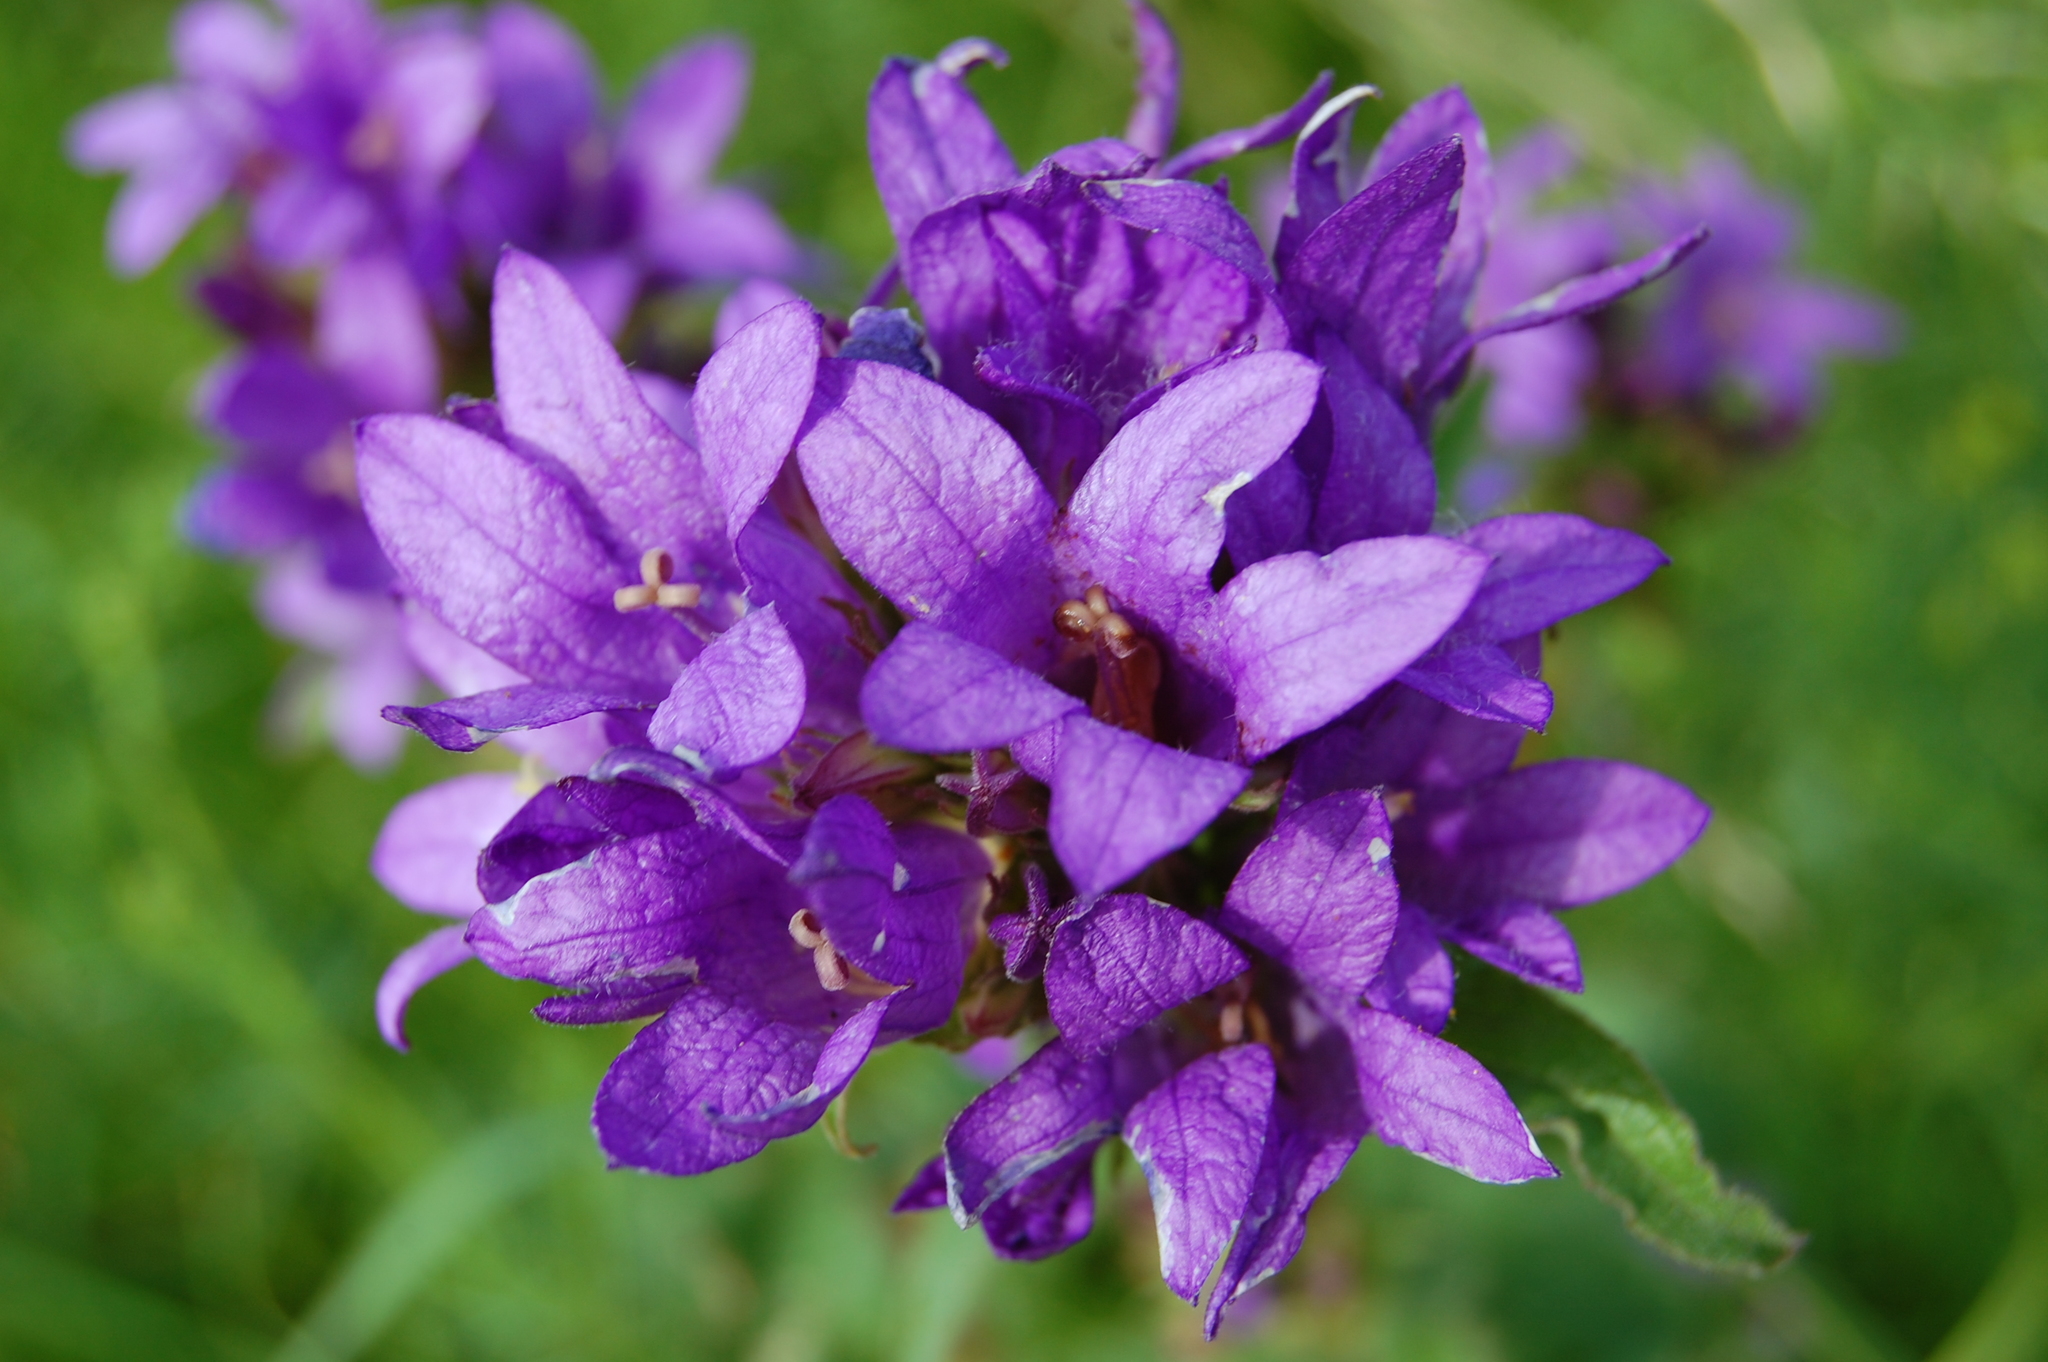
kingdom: Plantae
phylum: Tracheophyta
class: Magnoliopsida
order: Asterales
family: Campanulaceae
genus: Campanula
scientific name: Campanula glomerata
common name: Clustered bellflower
